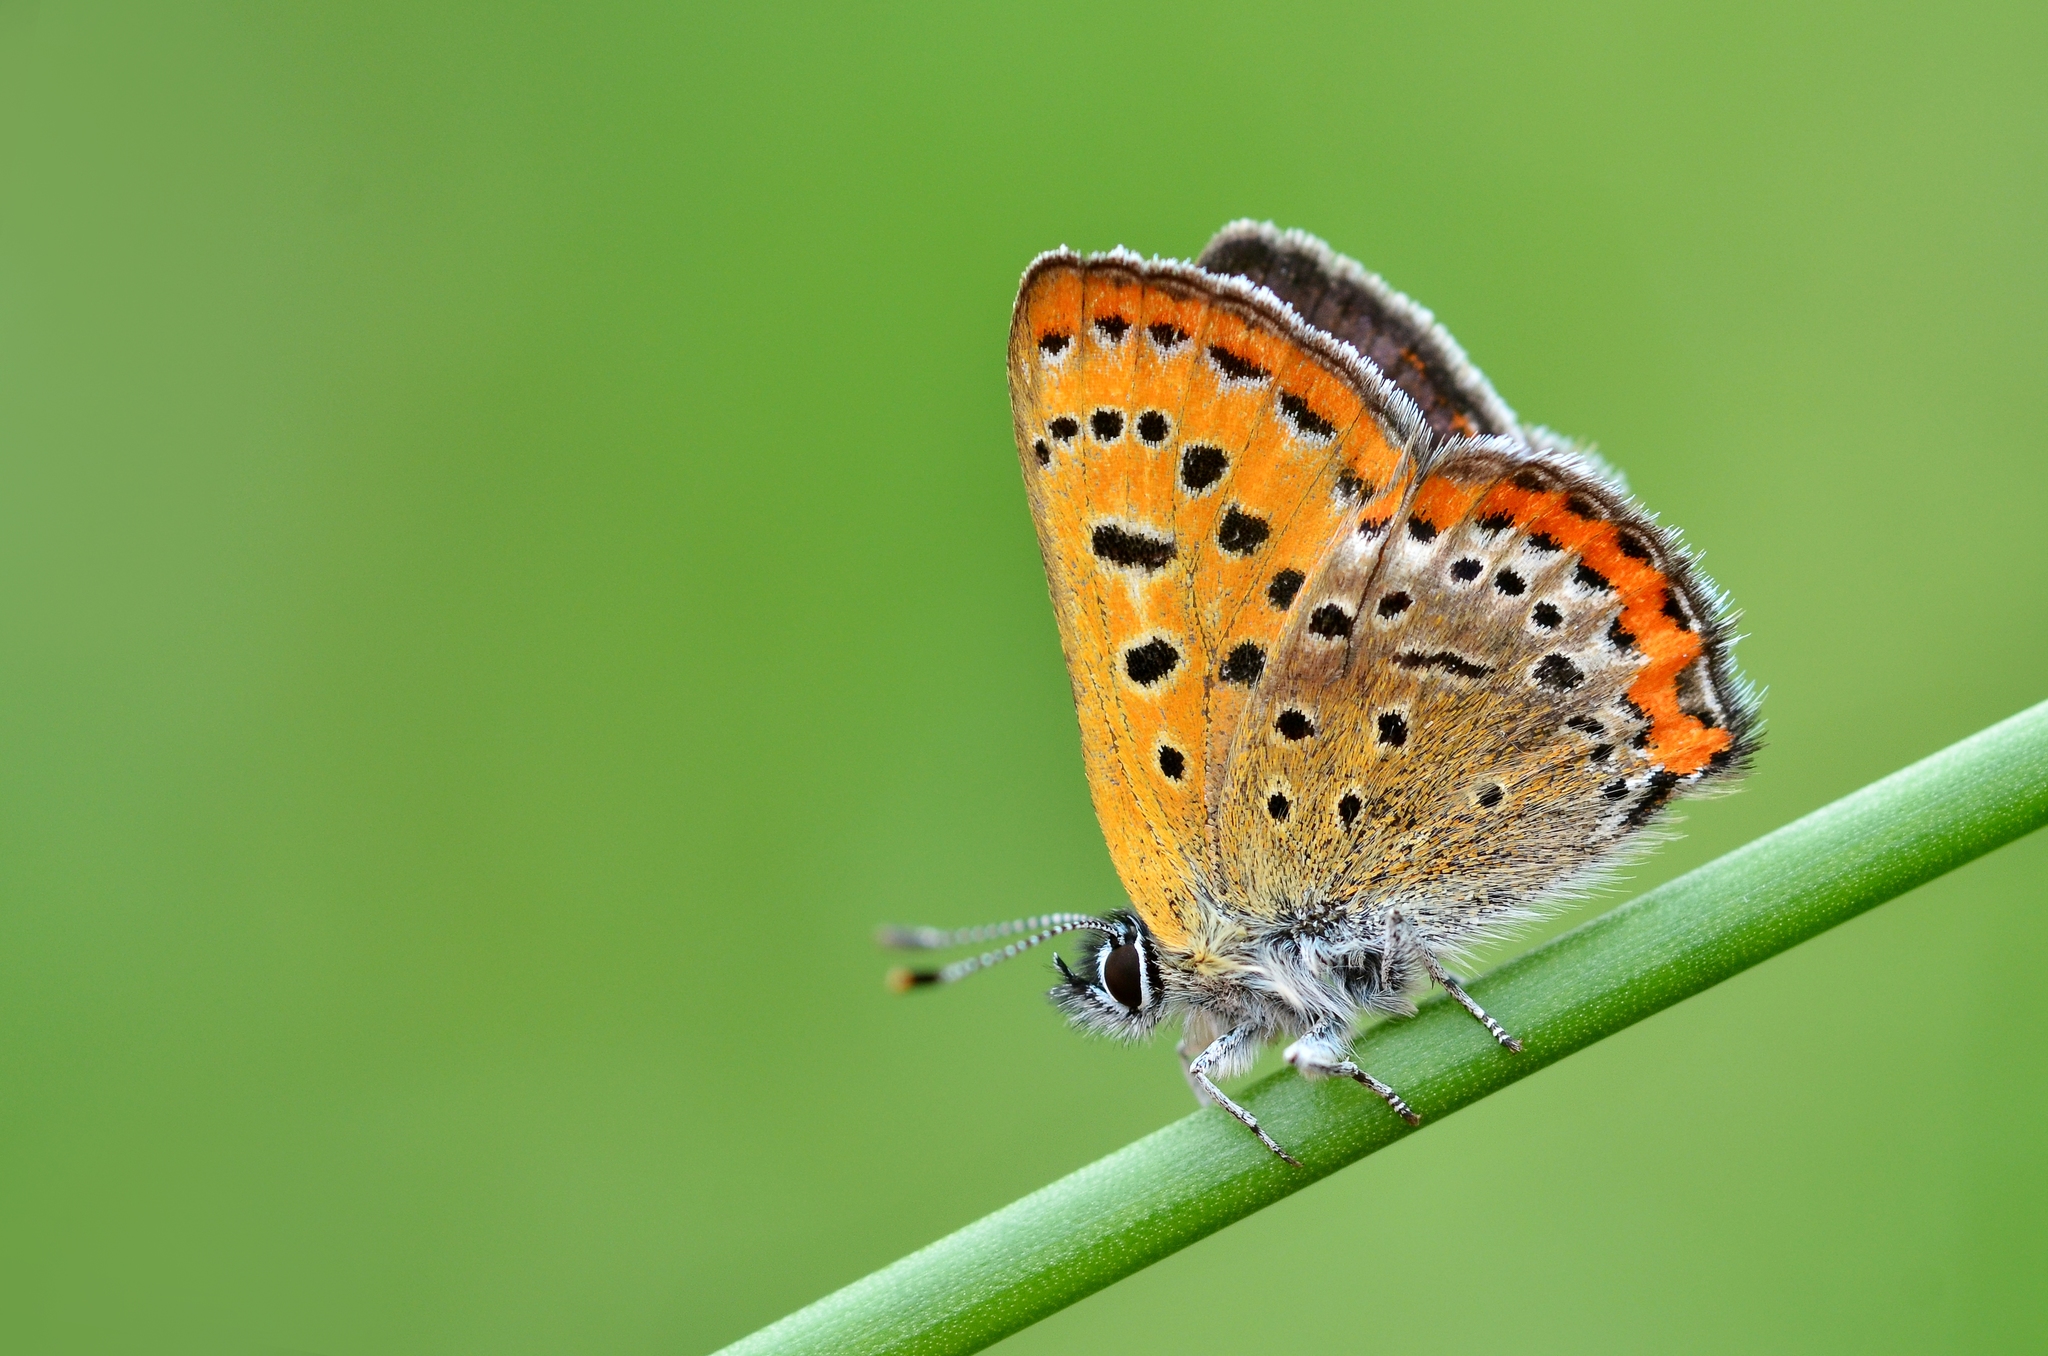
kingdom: Animalia
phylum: Arthropoda
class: Insecta
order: Lepidoptera
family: Lycaenidae
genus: Helleia
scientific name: Helleia helle
